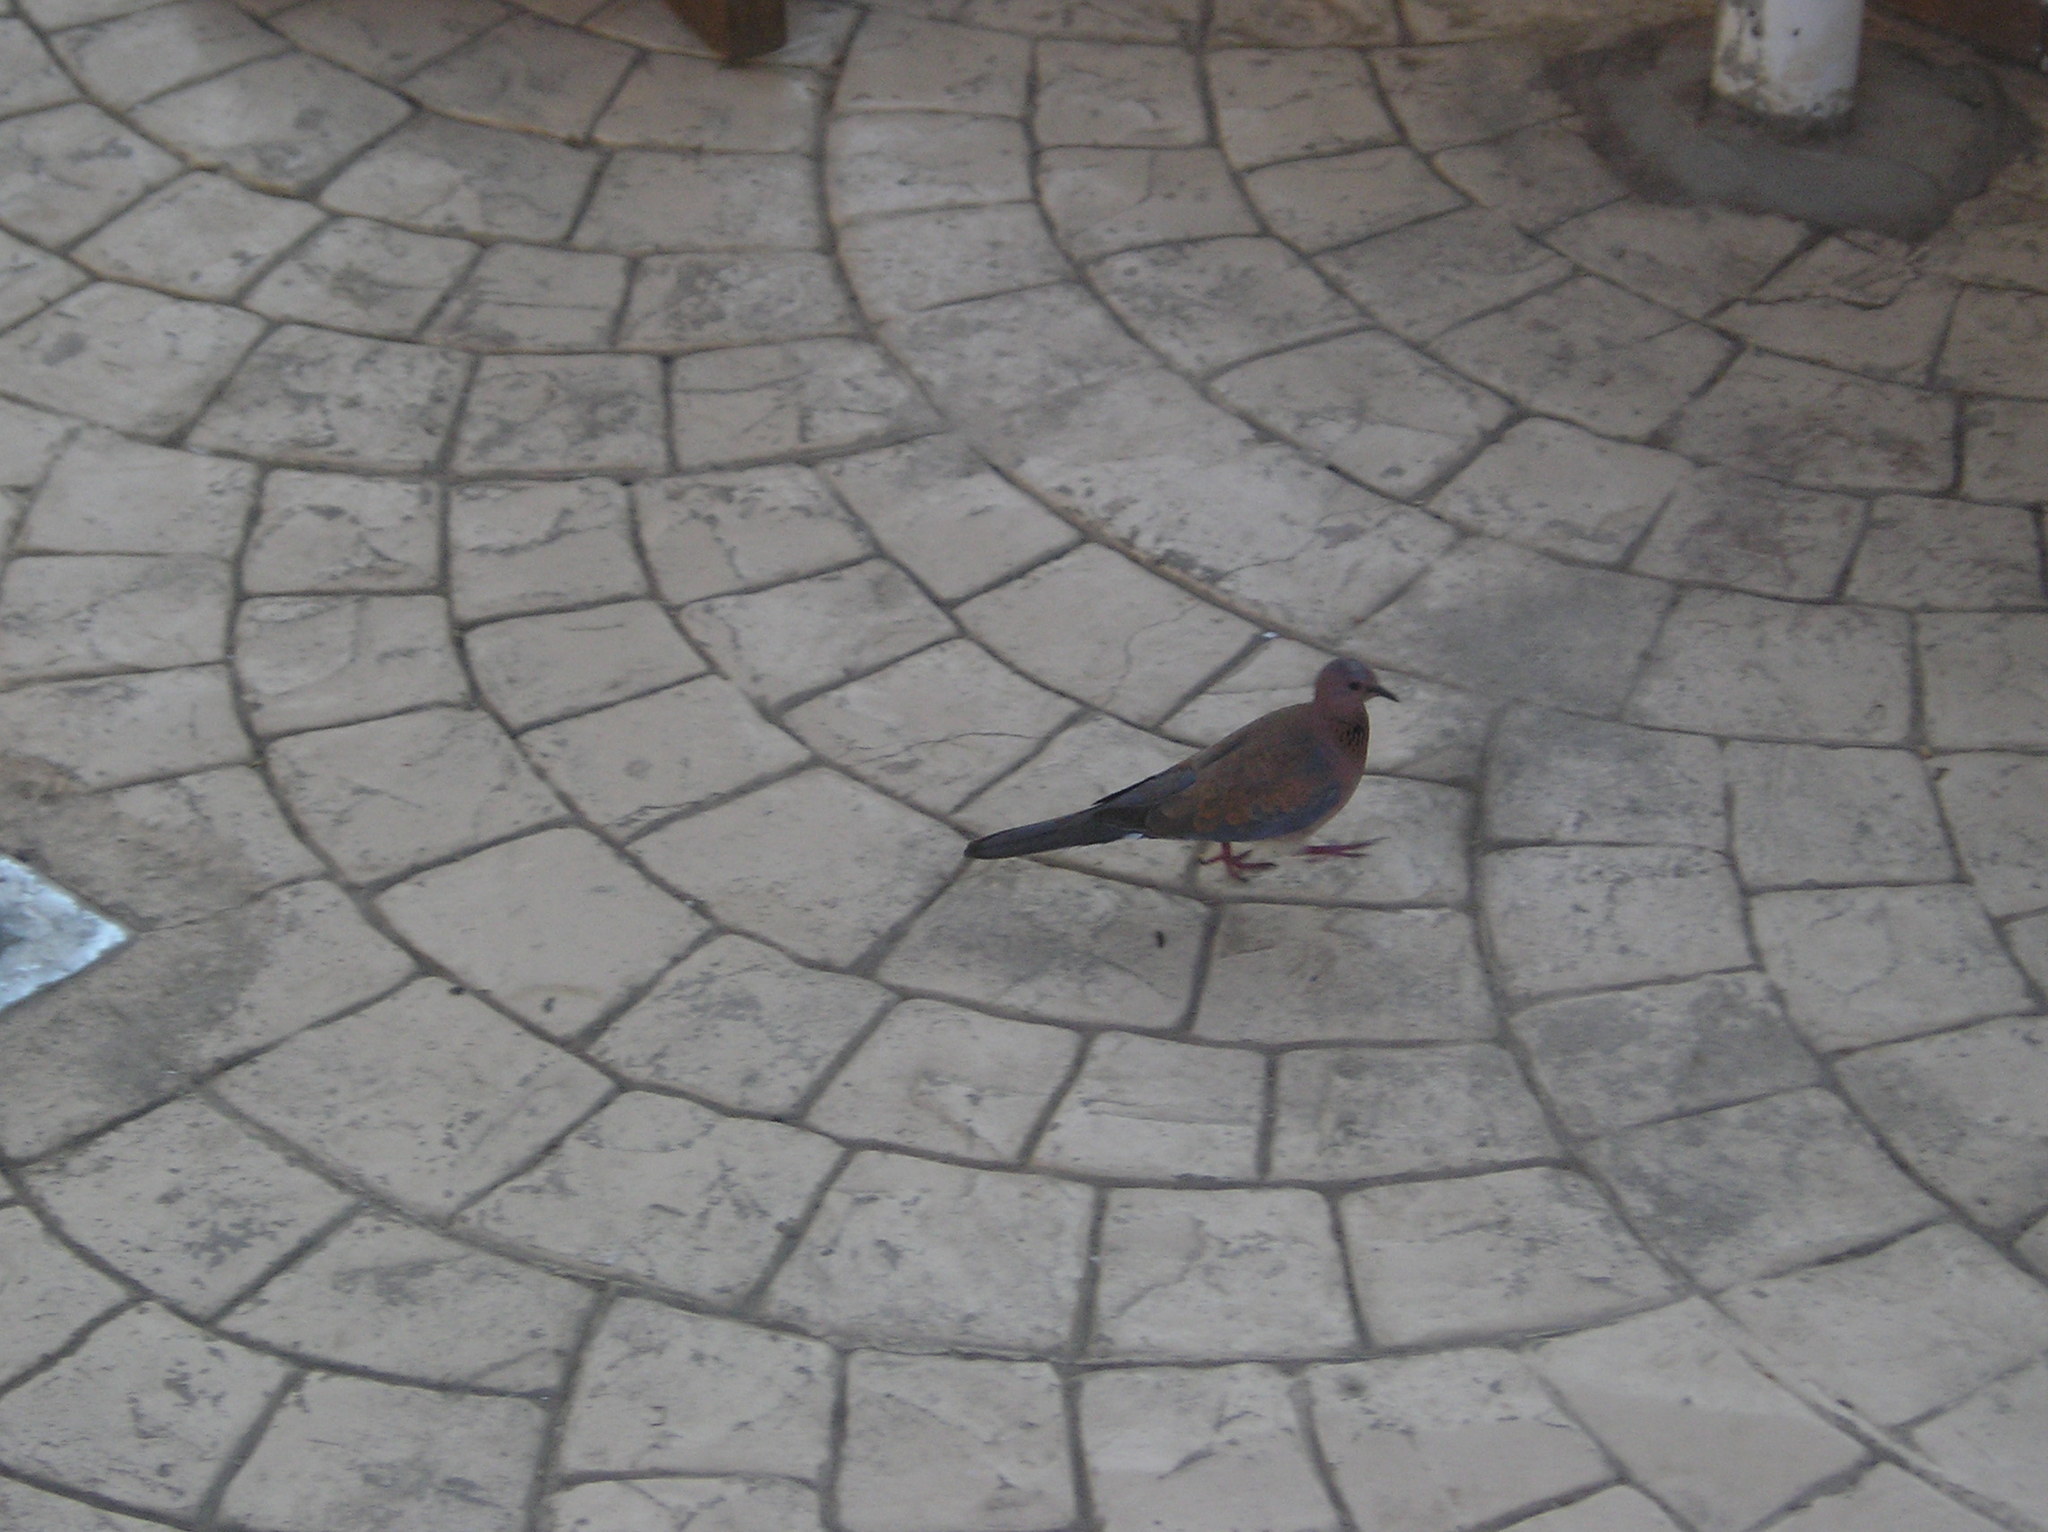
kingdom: Animalia
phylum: Chordata
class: Aves
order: Columbiformes
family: Columbidae
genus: Spilopelia
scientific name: Spilopelia senegalensis
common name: Laughing dove
